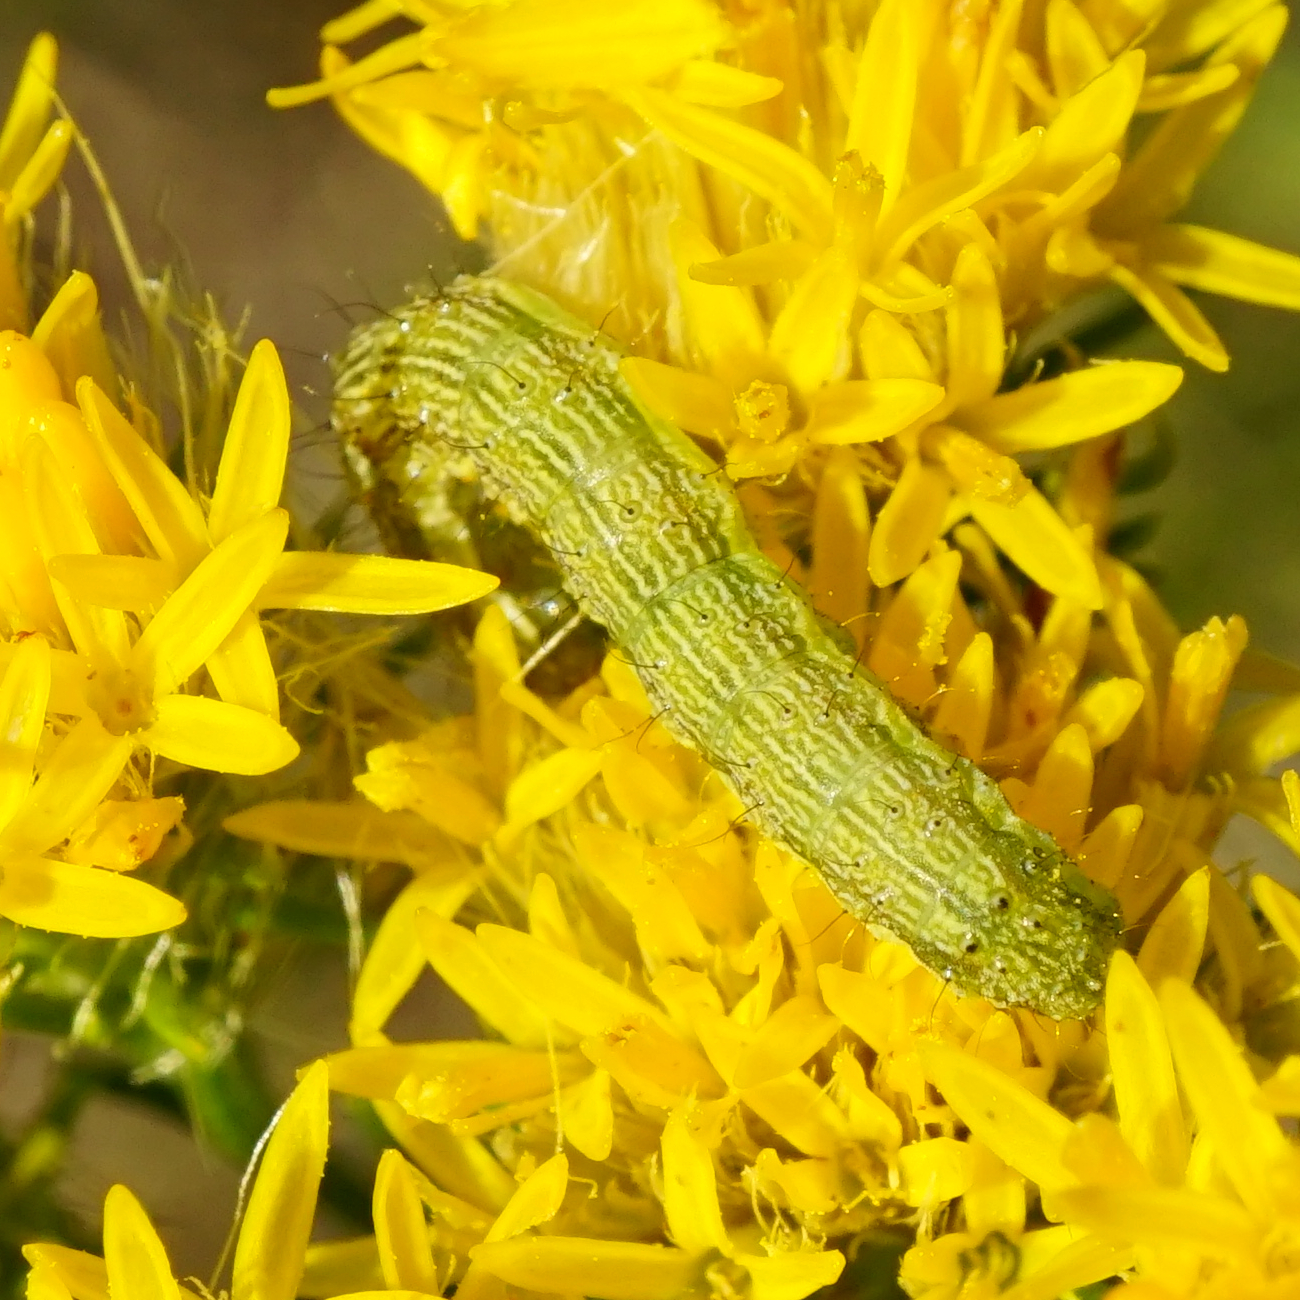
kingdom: Animalia
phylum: Arthropoda
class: Insecta
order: Lepidoptera
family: Noctuidae
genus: Helicoverpa
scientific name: Helicoverpa armigera
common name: Cotton bollworm
